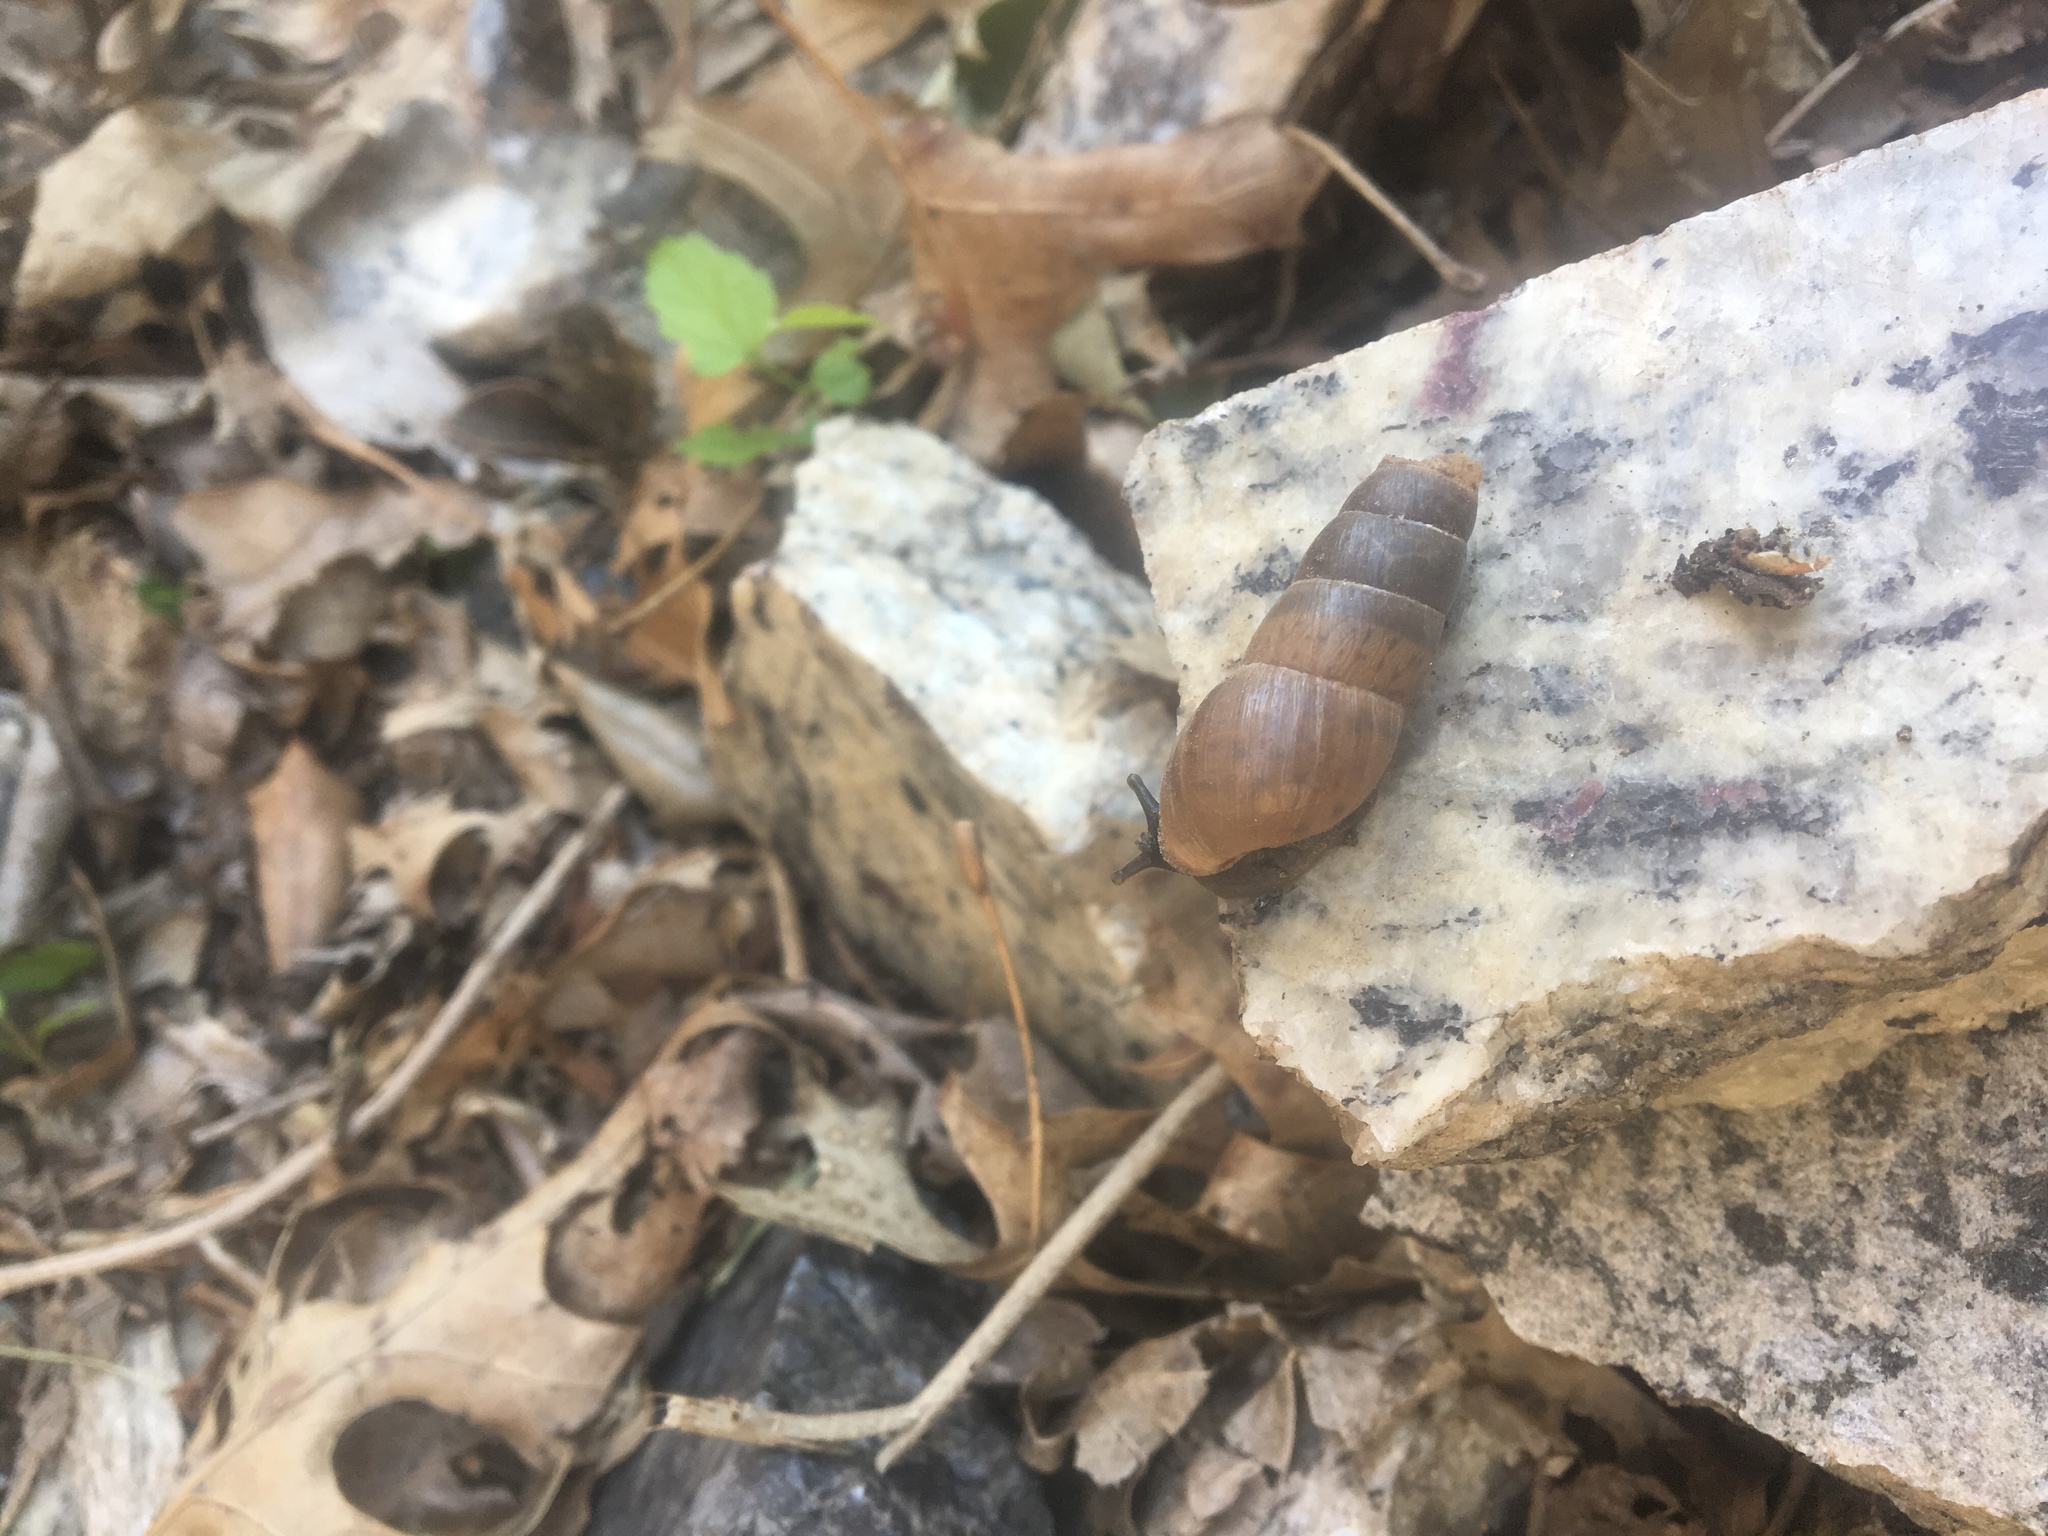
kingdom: Animalia
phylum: Mollusca
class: Gastropoda
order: Stylommatophora
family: Achatinidae
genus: Rumina
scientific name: Rumina decollata
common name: Decollate snail
